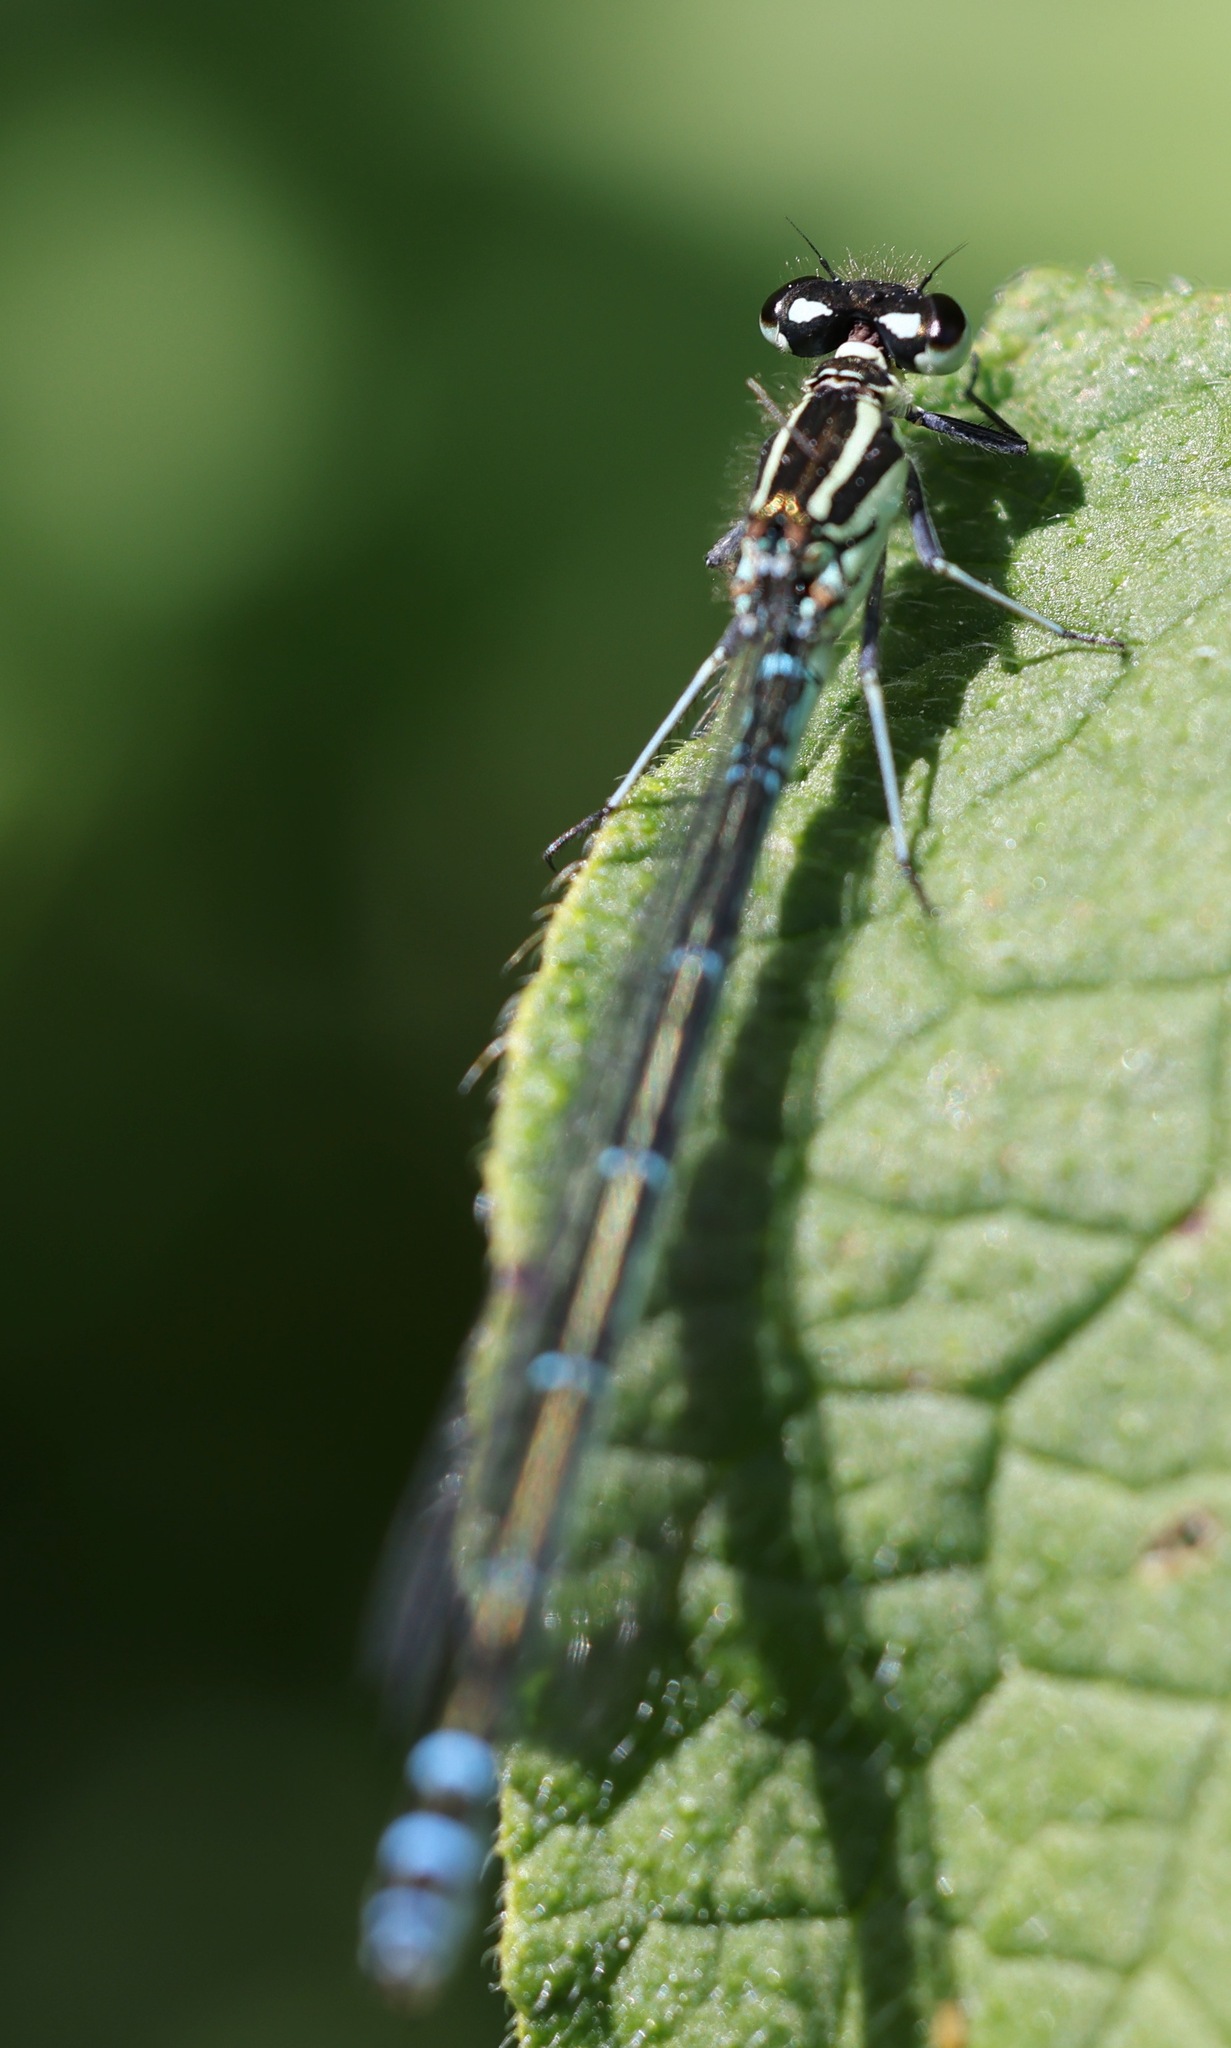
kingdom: Animalia
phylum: Arthropoda
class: Insecta
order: Odonata
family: Coenagrionidae
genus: Coenagrion
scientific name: Coenagrion puella
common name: Azure damselfly
